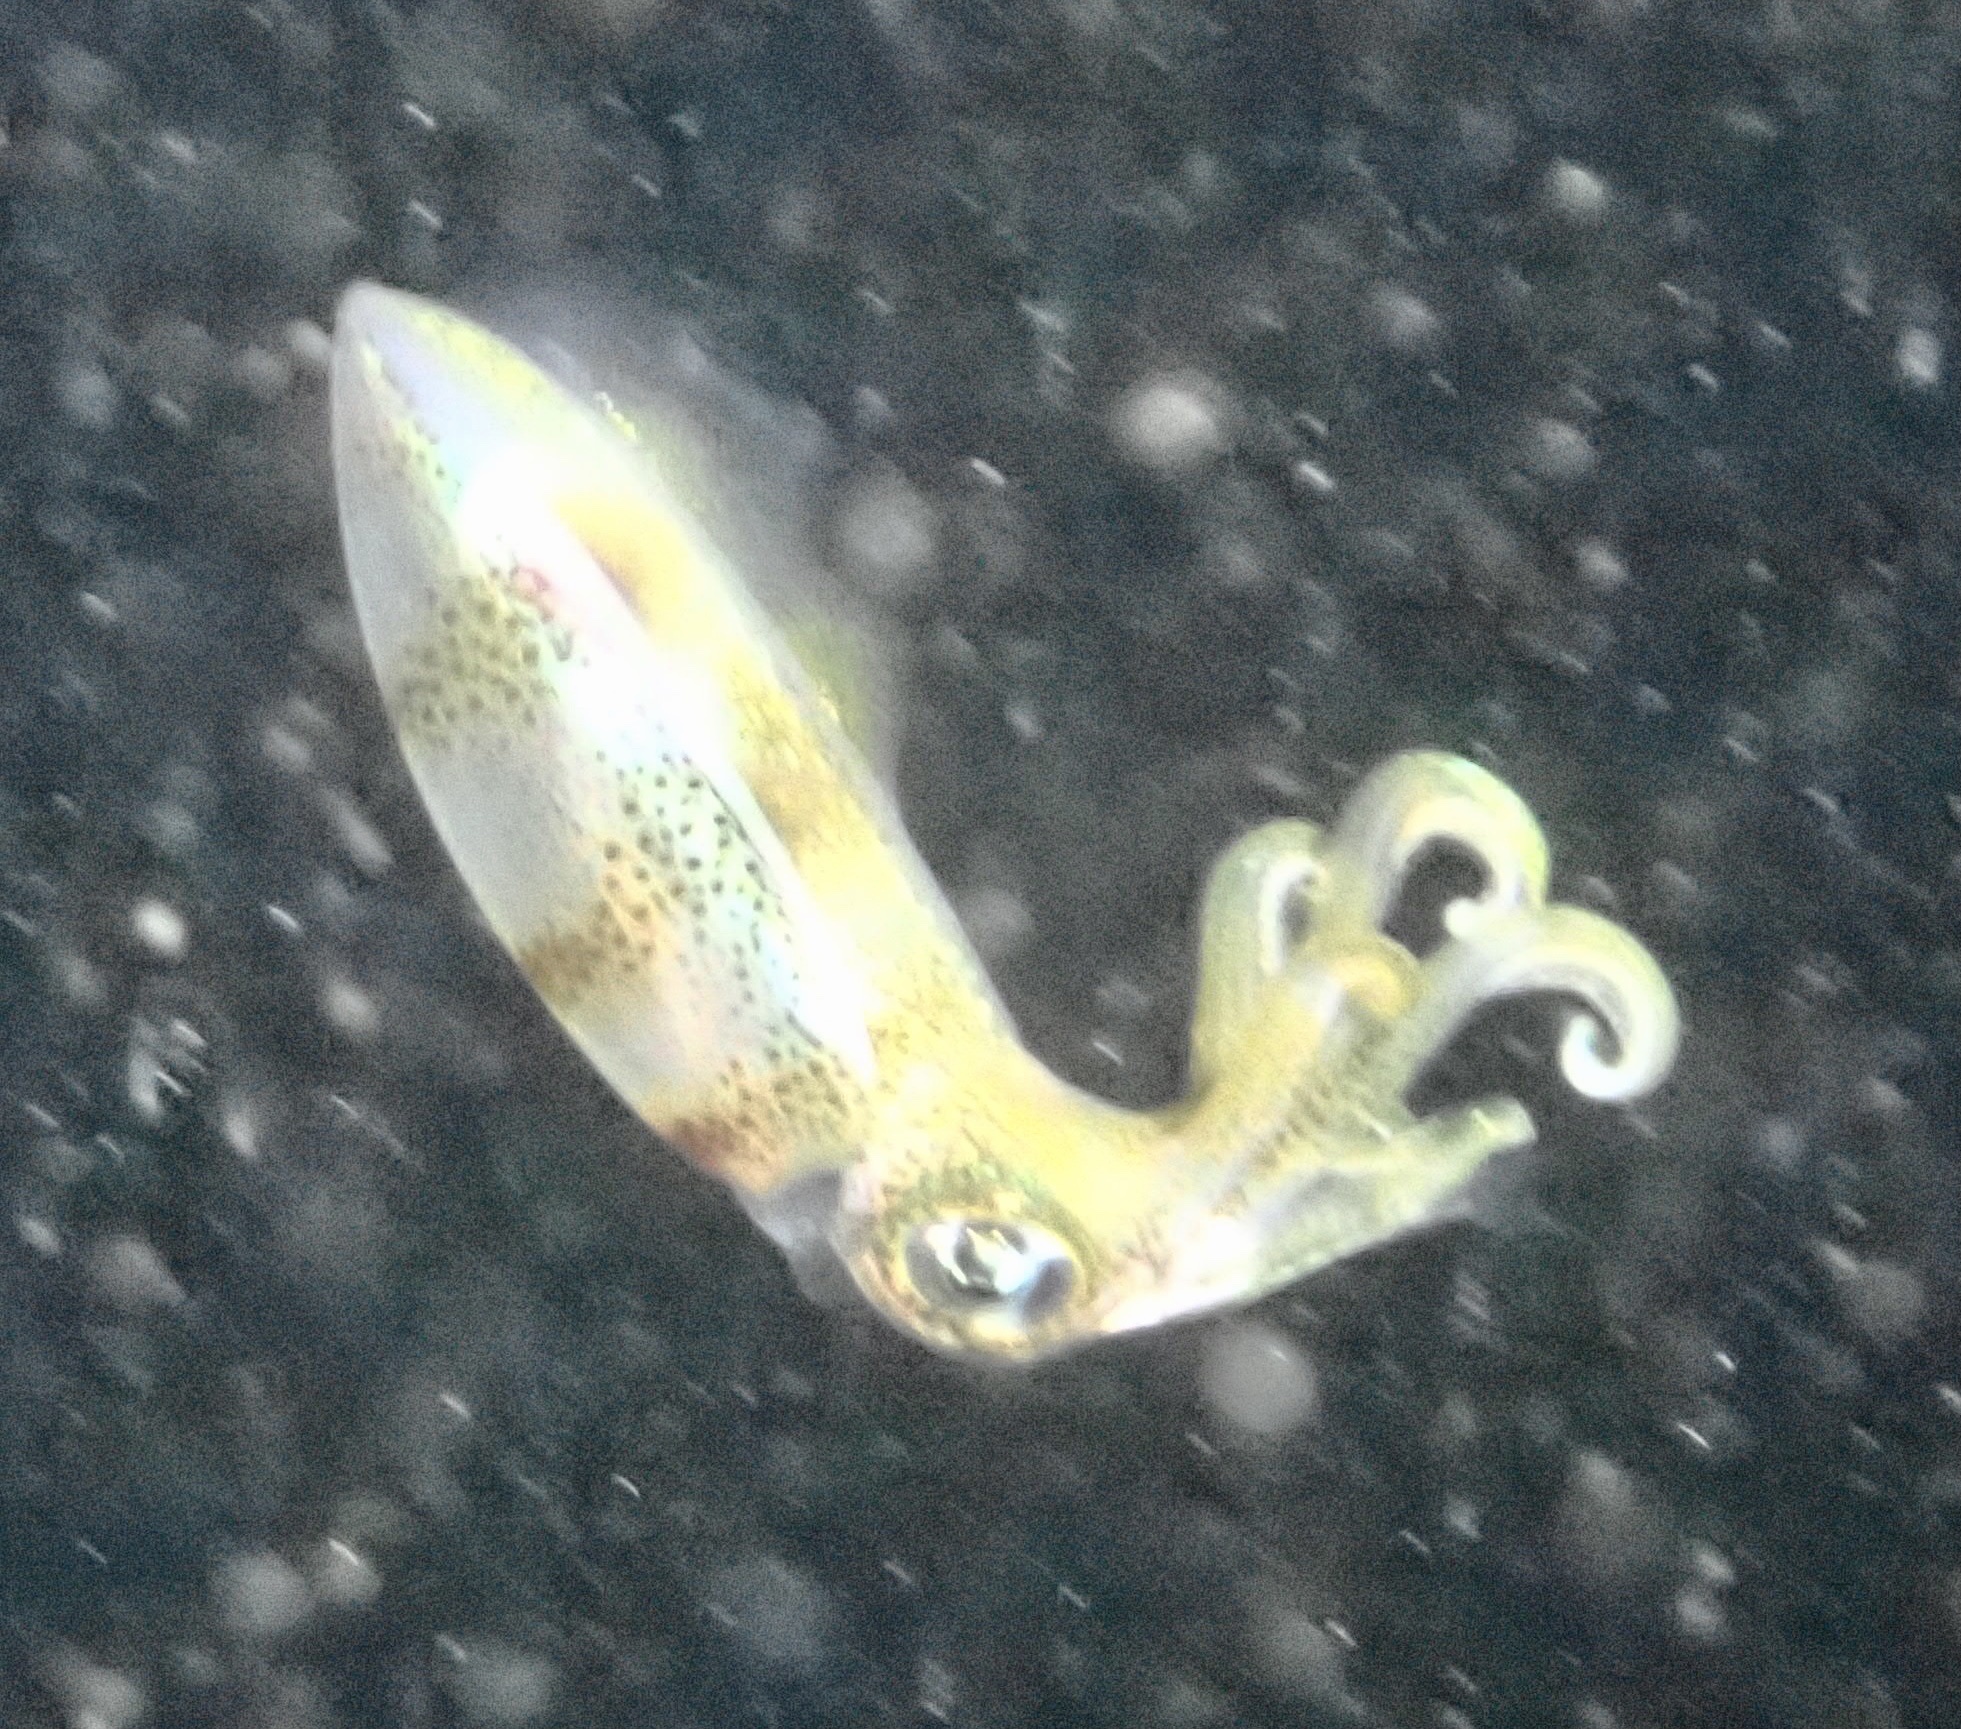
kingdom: Animalia
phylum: Mollusca
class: Cephalopoda
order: Myopsida
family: Loliginidae
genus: Sepioteuthis
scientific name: Sepioteuthis lessoniana
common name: Bigfin reef squid
